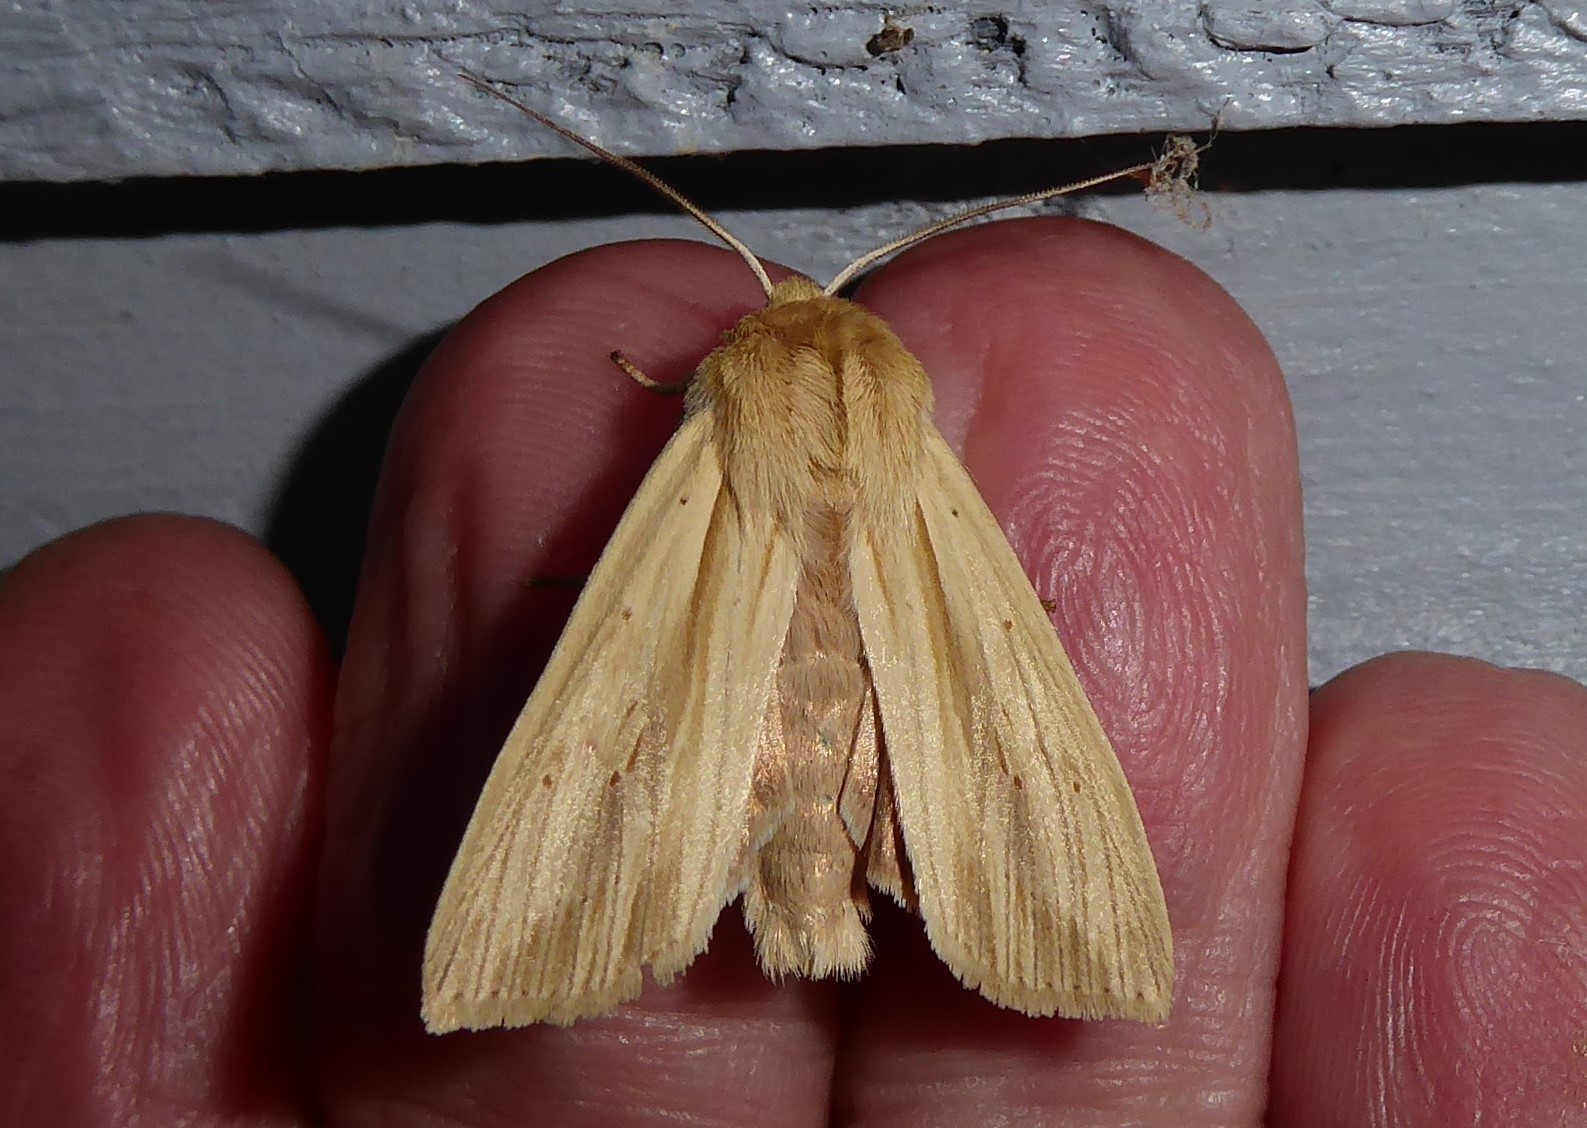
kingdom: Animalia
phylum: Arthropoda
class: Insecta
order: Lepidoptera
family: Noctuidae
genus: Ichneutica
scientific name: Ichneutica semivittata
